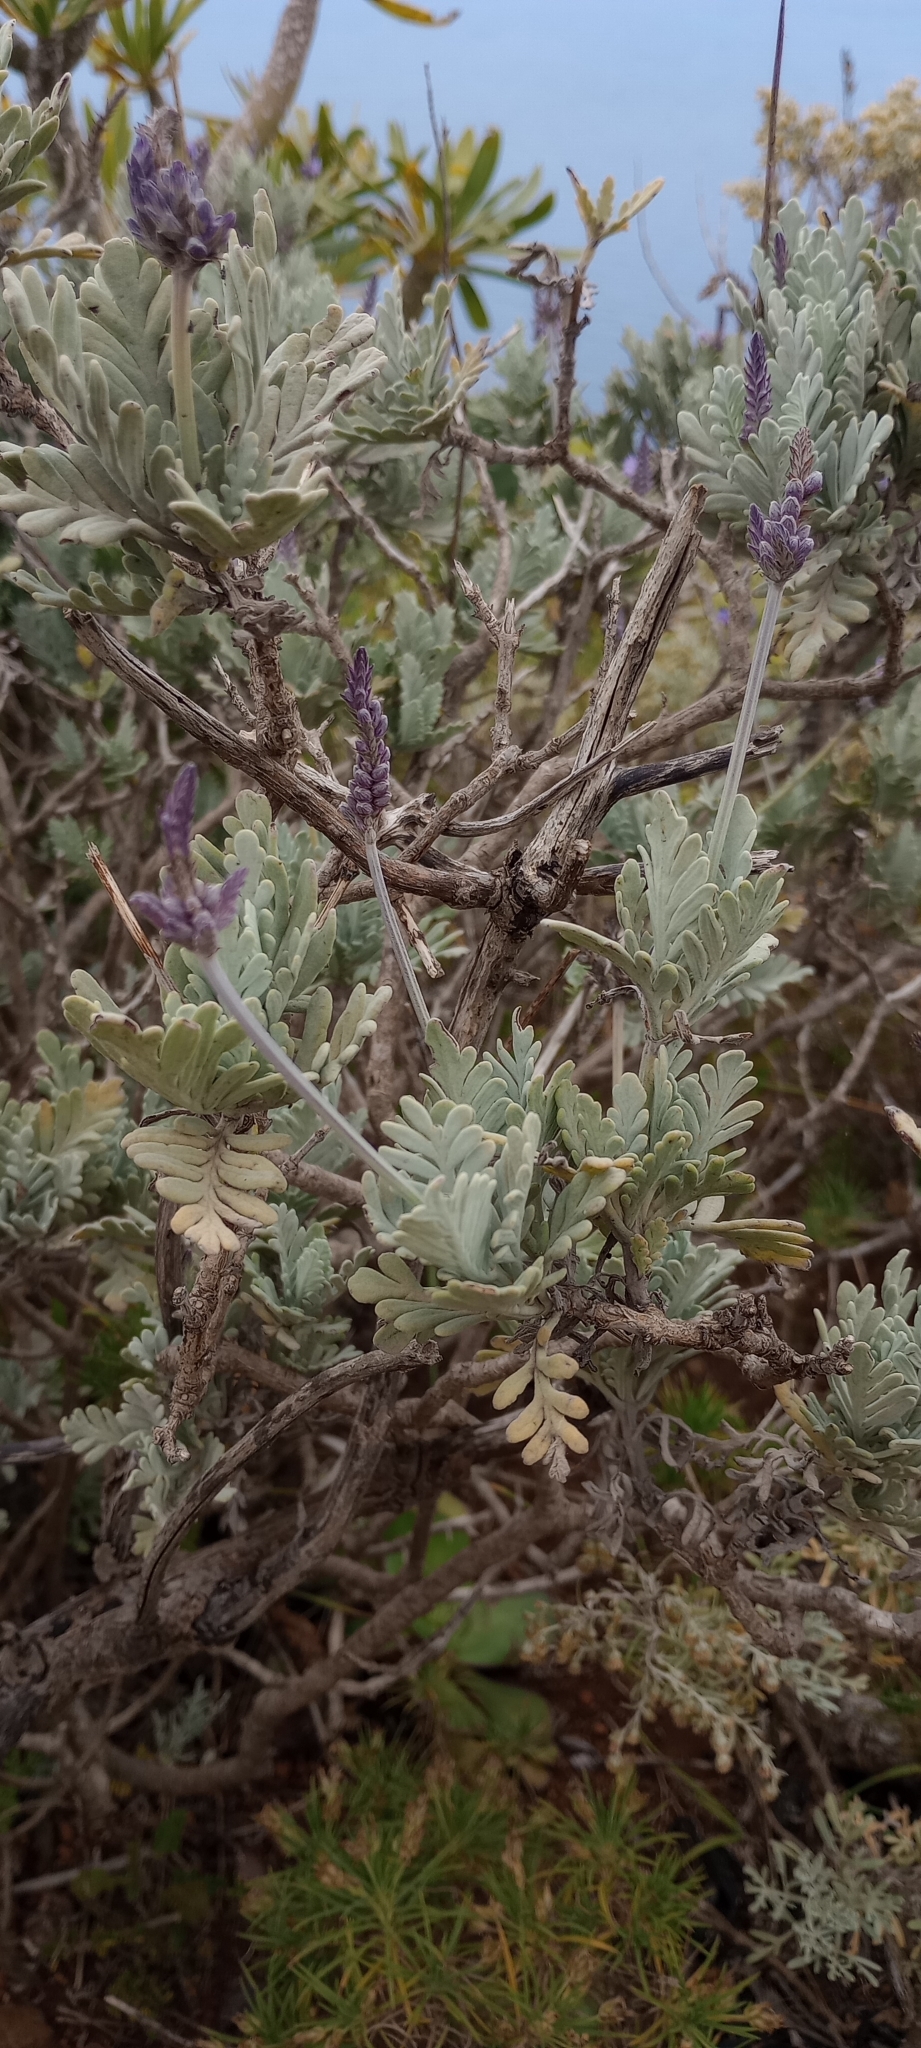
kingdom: Plantae
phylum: Tracheophyta
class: Magnoliopsida
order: Lamiales
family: Lamiaceae
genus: Lavandula
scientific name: Lavandula buchii
